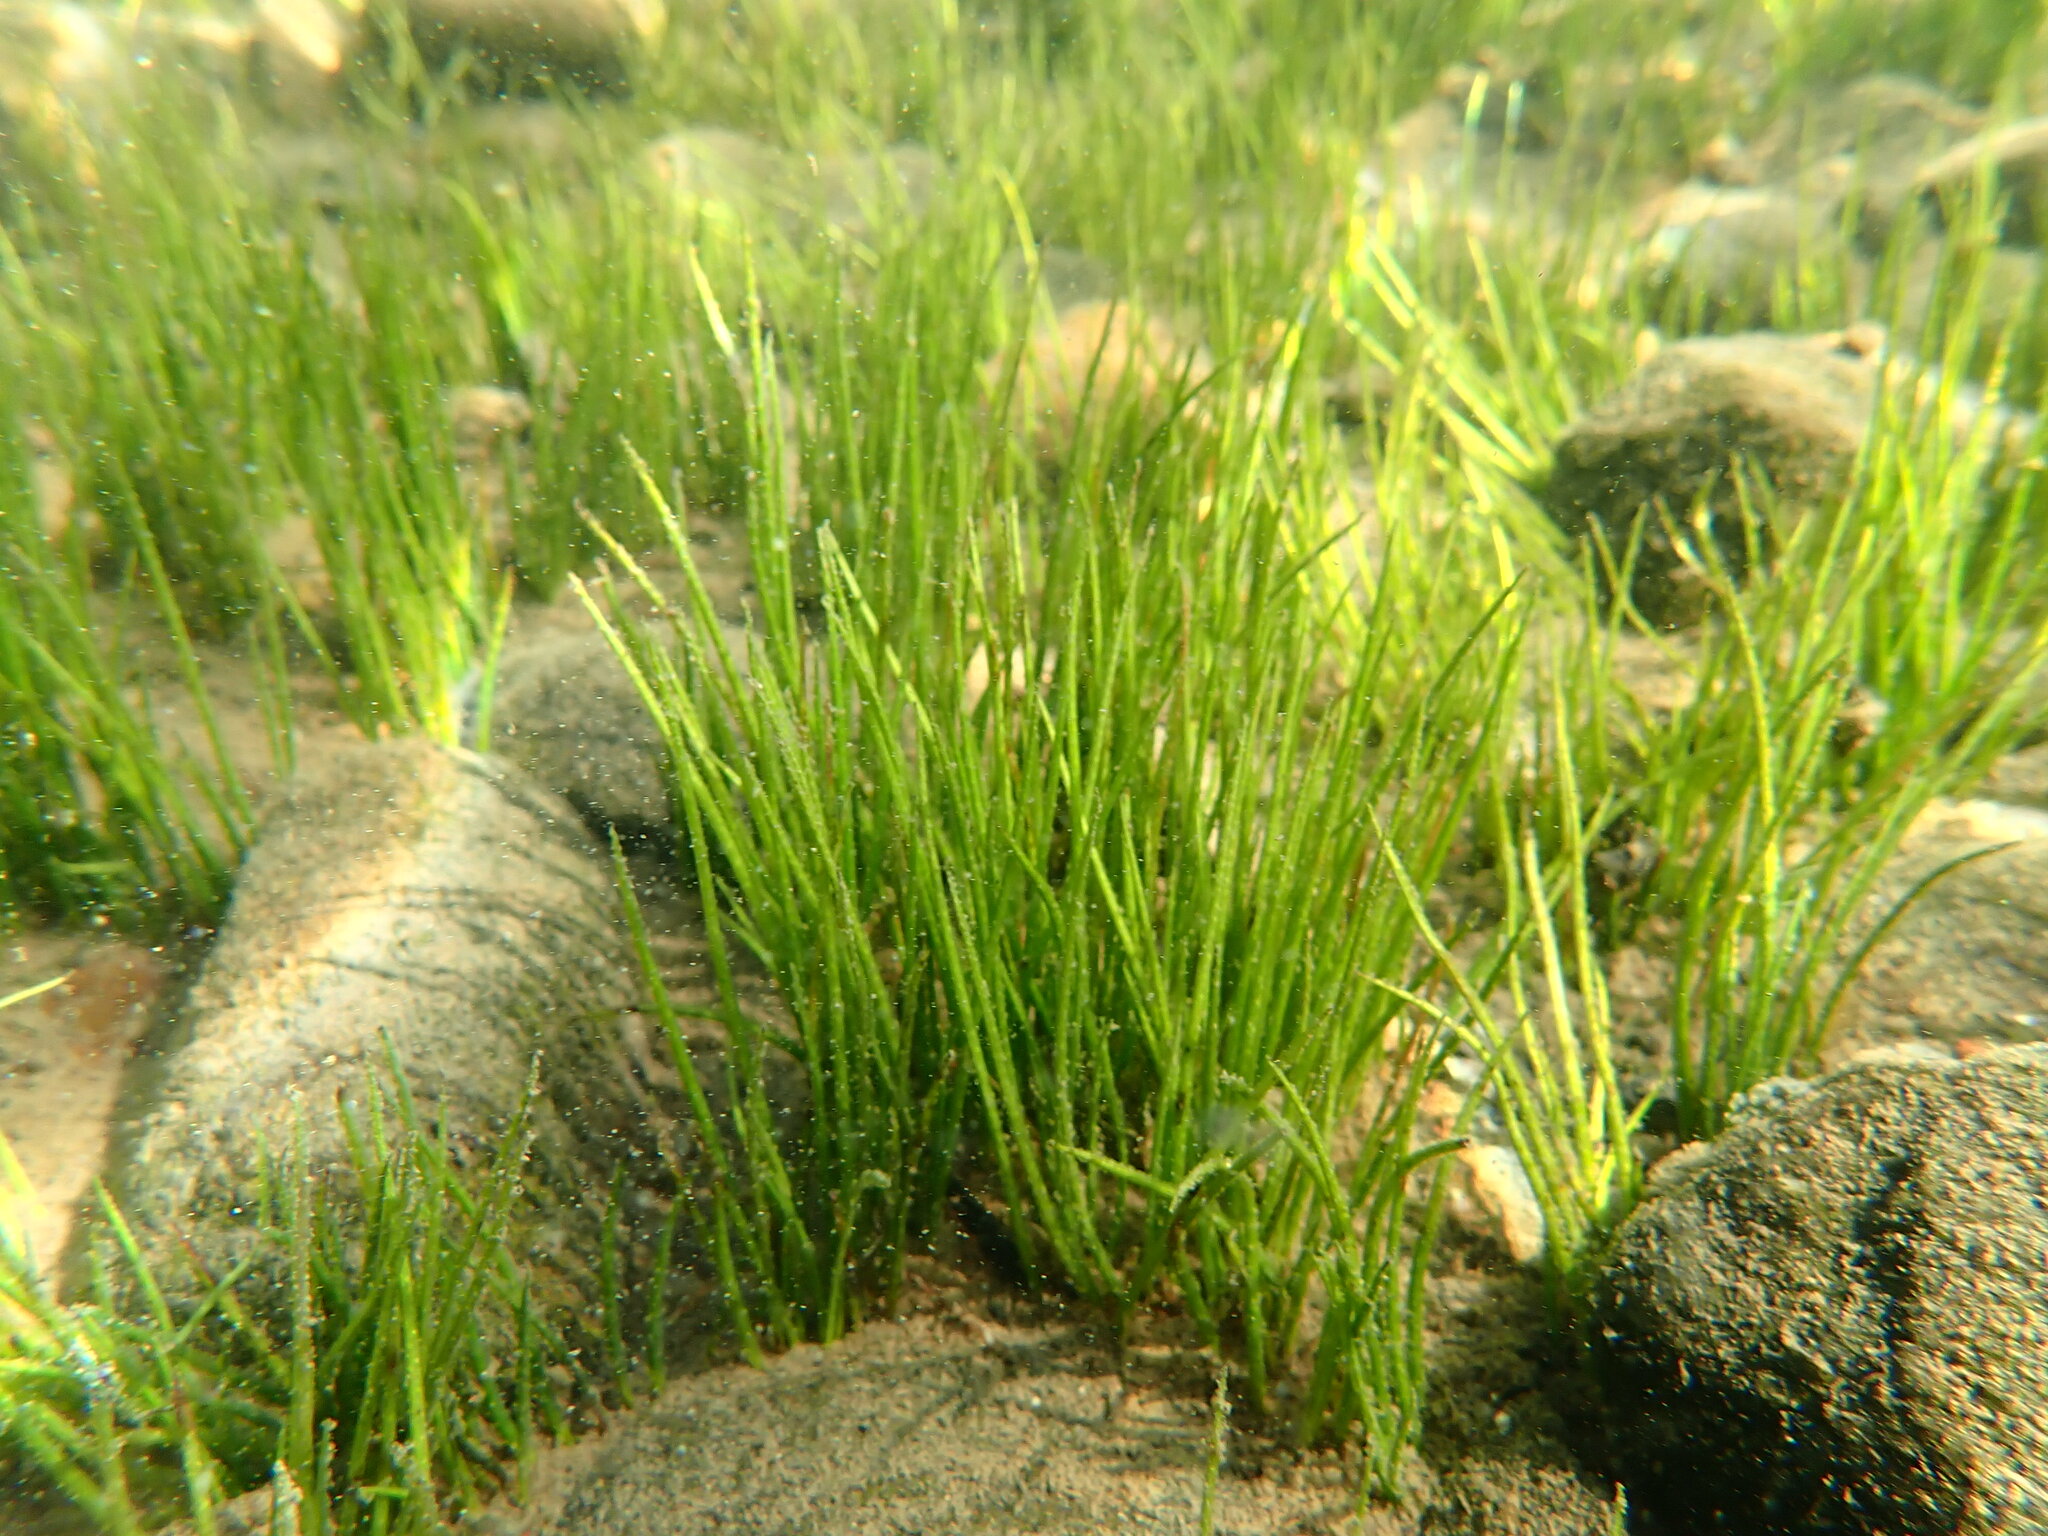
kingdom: Plantae
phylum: Tracheophyta
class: Lycopodiopsida
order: Isoetales
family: Isoetaceae
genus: Isoetes
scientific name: Isoetes occidentalis
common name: Western quillwort
